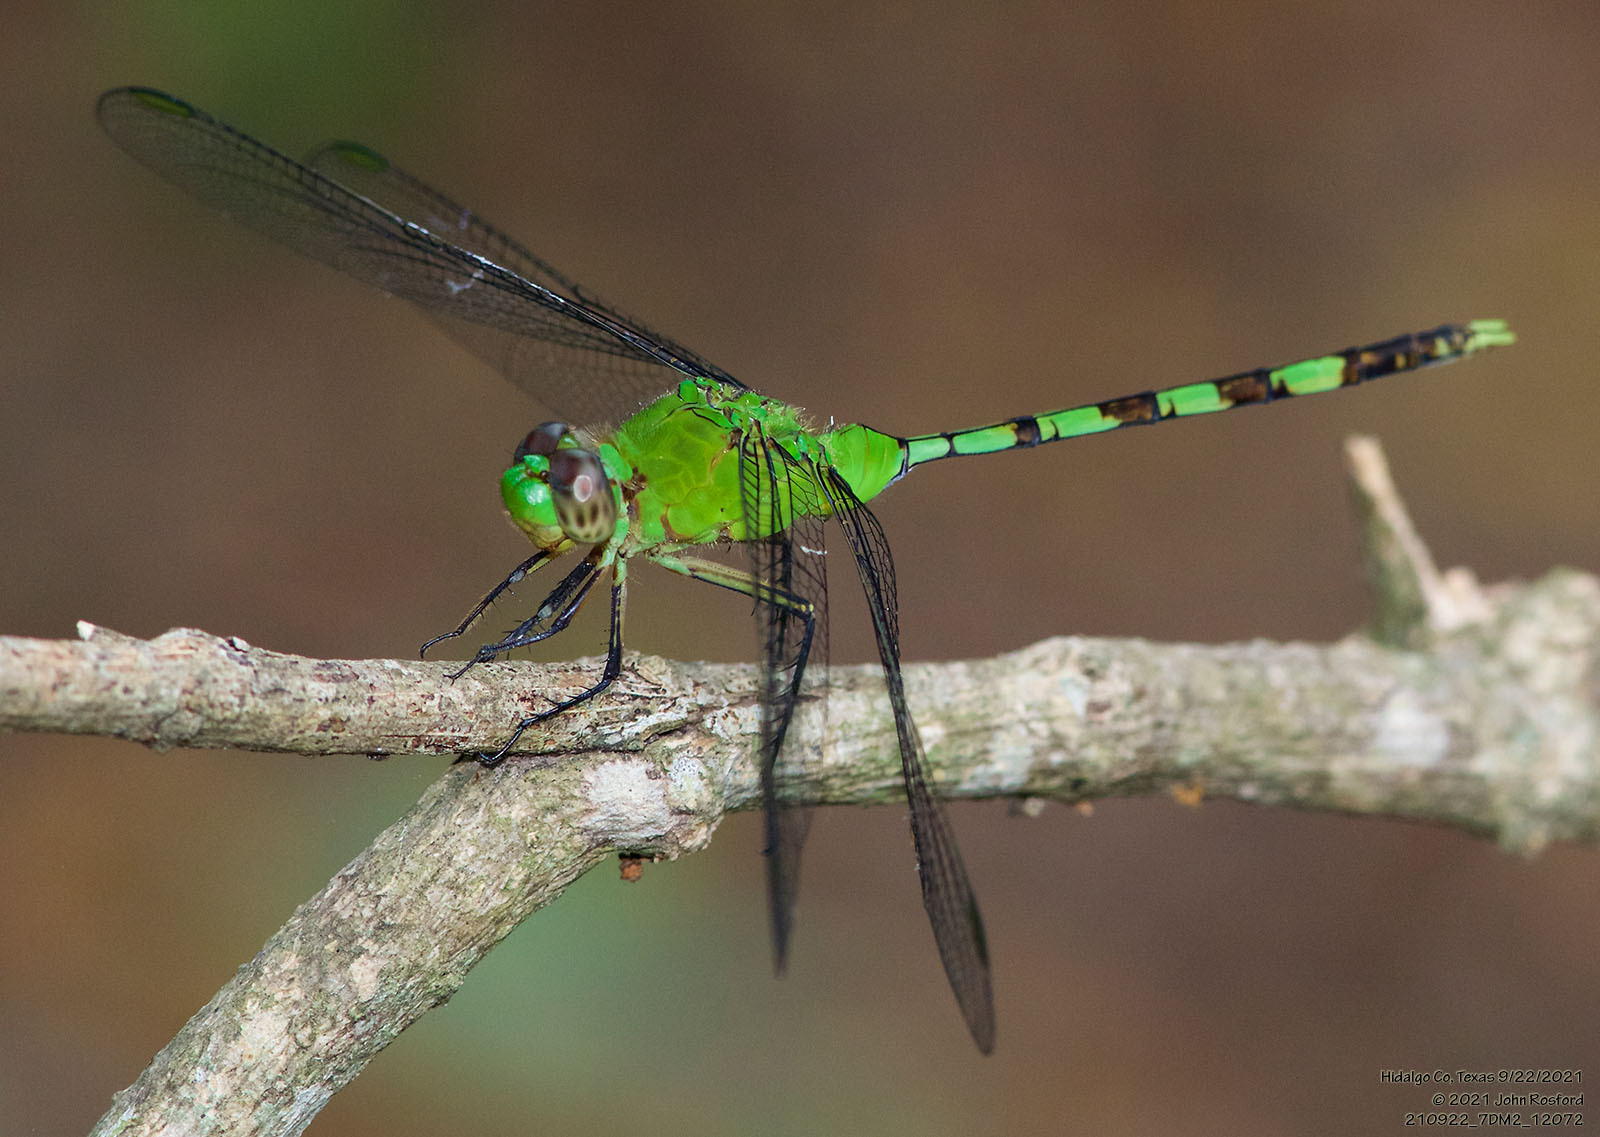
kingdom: Animalia
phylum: Arthropoda
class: Insecta
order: Odonata
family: Libellulidae
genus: Erythemis
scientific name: Erythemis vesiculosa
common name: Great pondhawk
